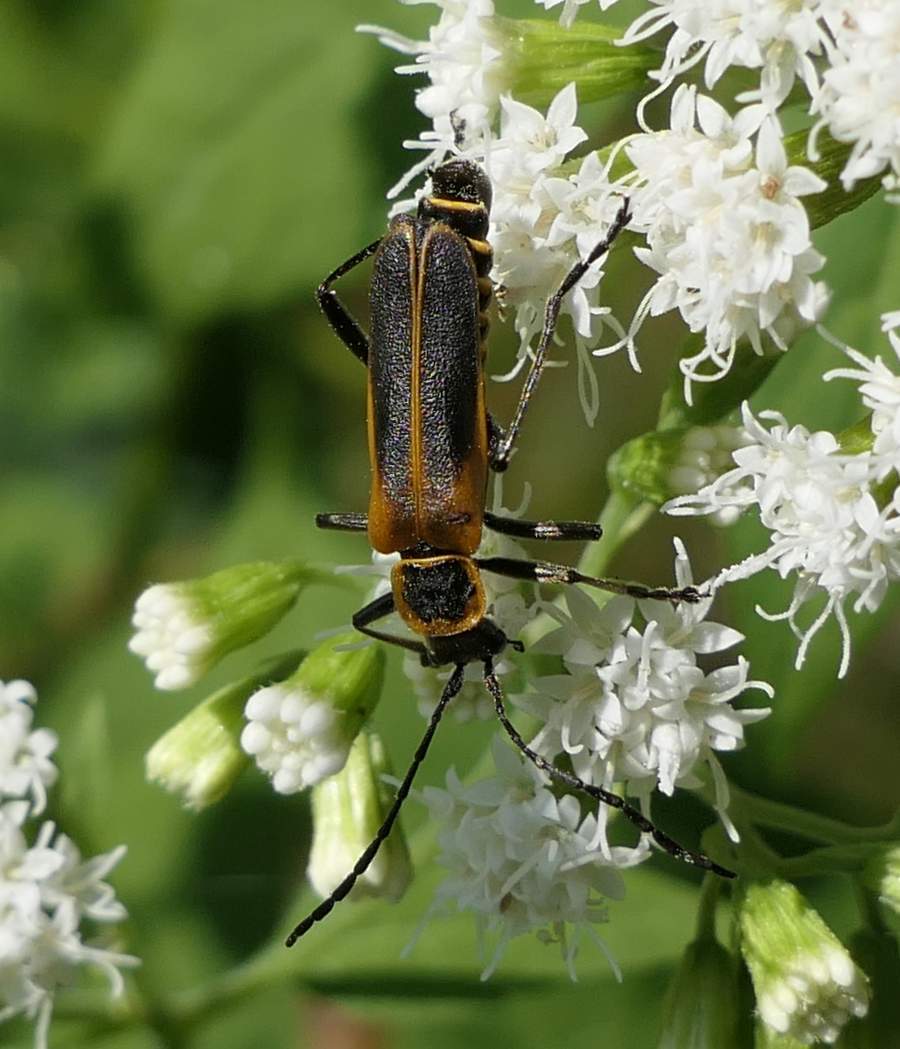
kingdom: Animalia
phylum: Arthropoda
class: Insecta
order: Coleoptera
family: Cantharidae
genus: Chauliognathus
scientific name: Chauliognathus pensylvanicus
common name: Goldenrod soldier beetle
